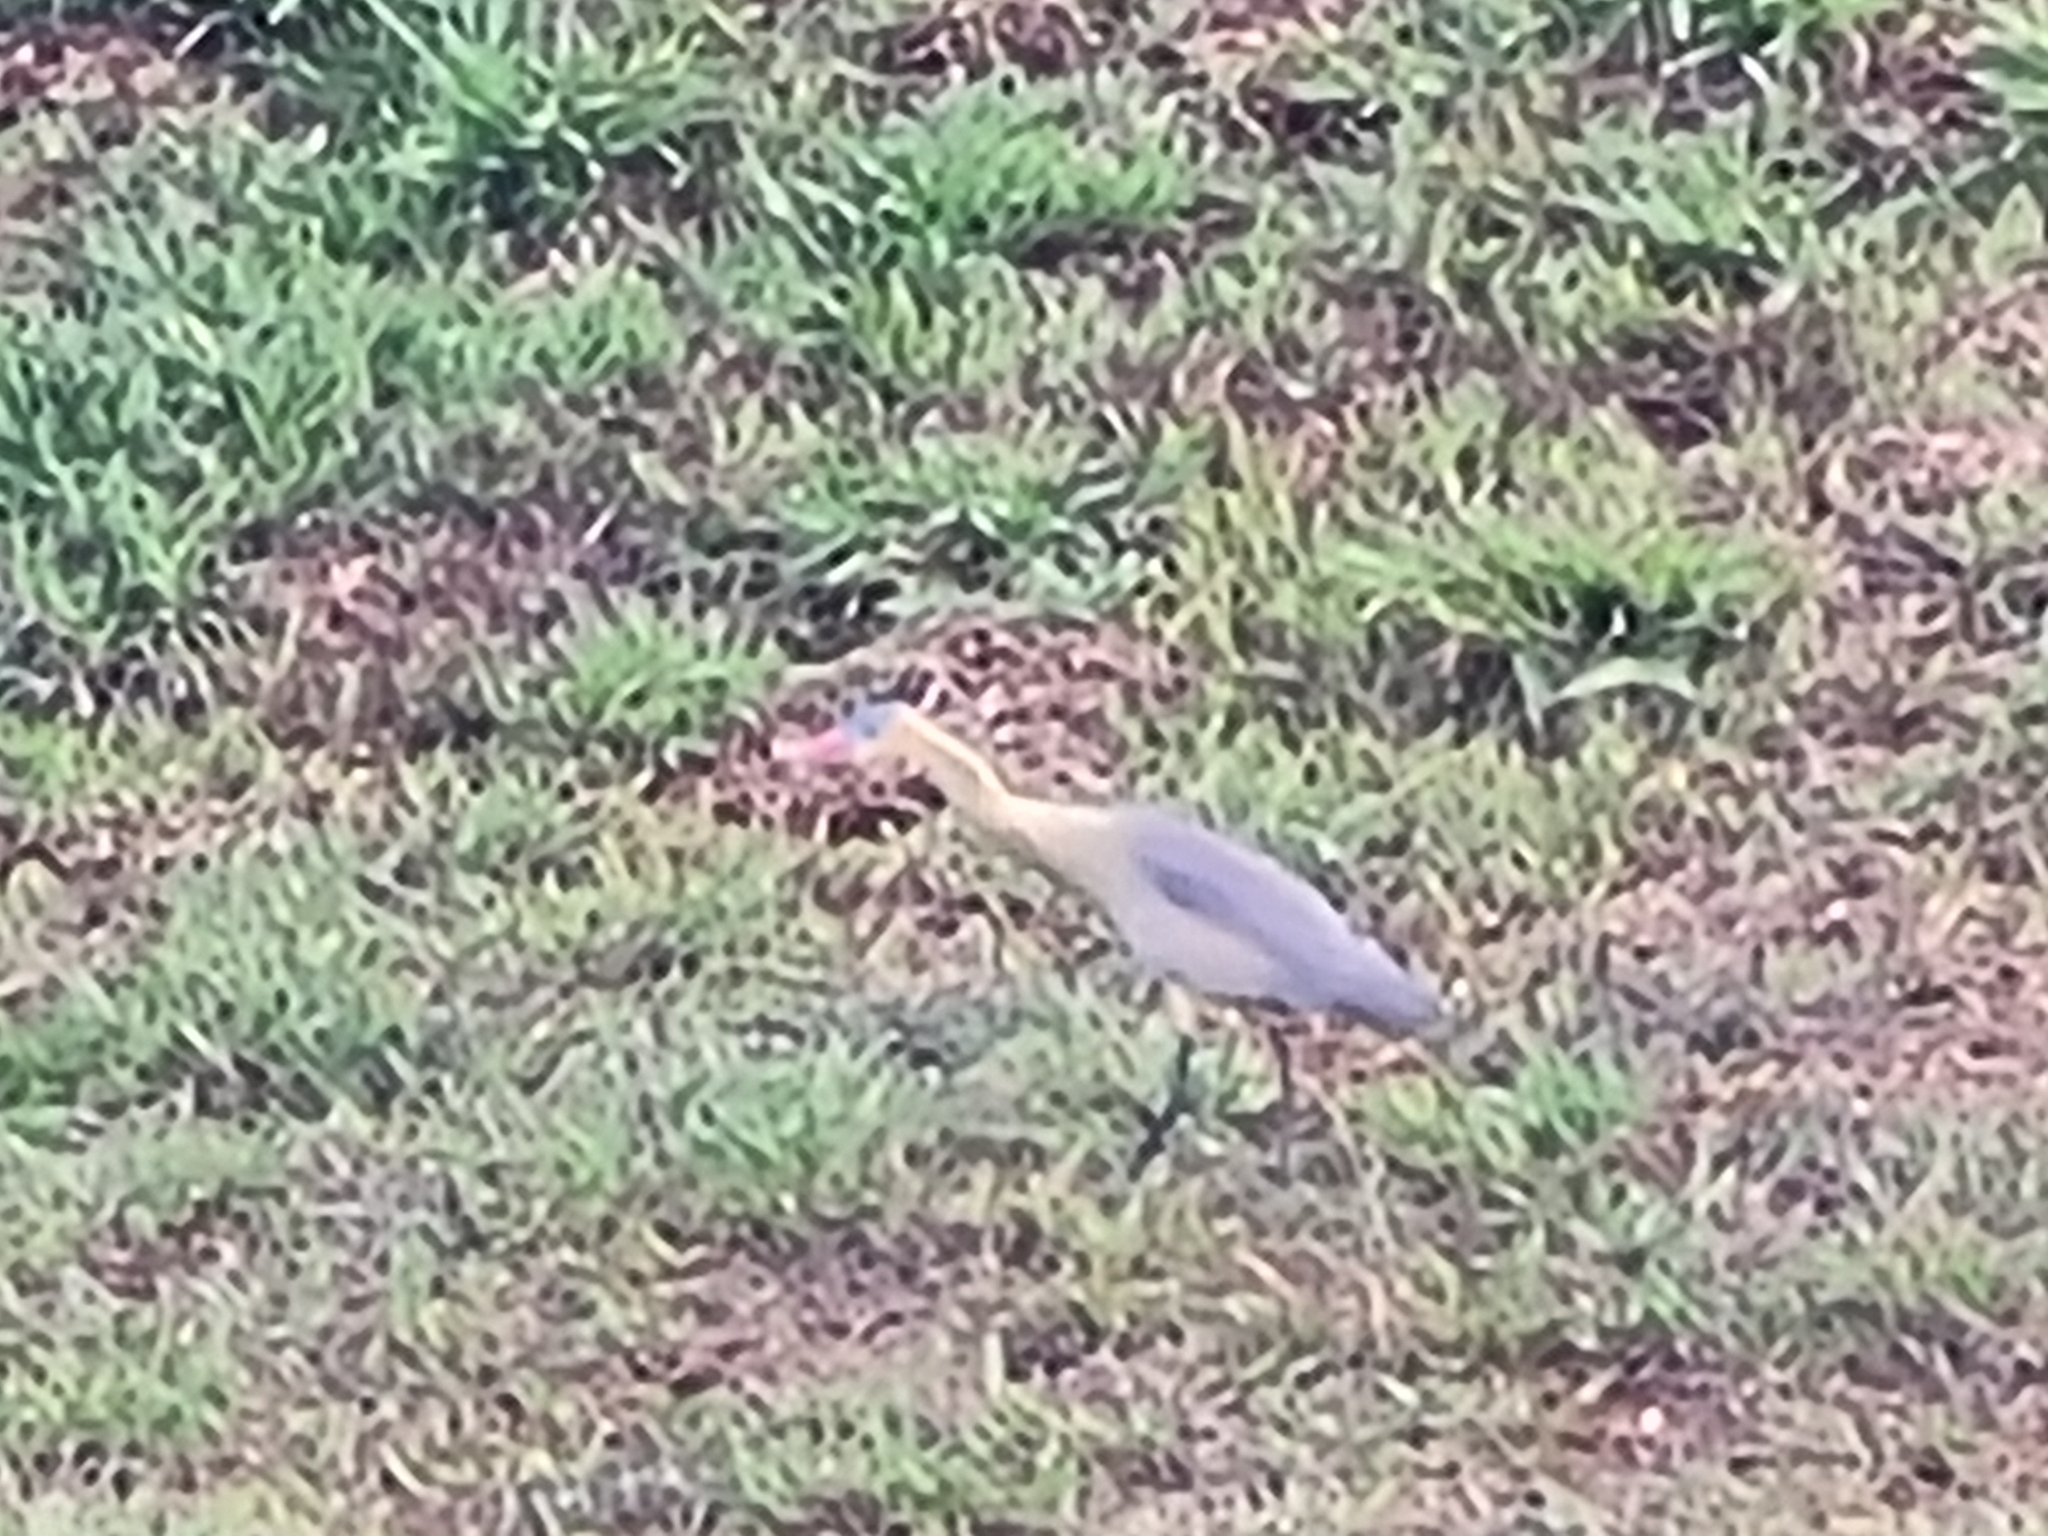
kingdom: Animalia
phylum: Chordata
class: Aves
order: Pelecaniformes
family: Ardeidae
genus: Syrigma
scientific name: Syrigma sibilatrix
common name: Whistling heron
